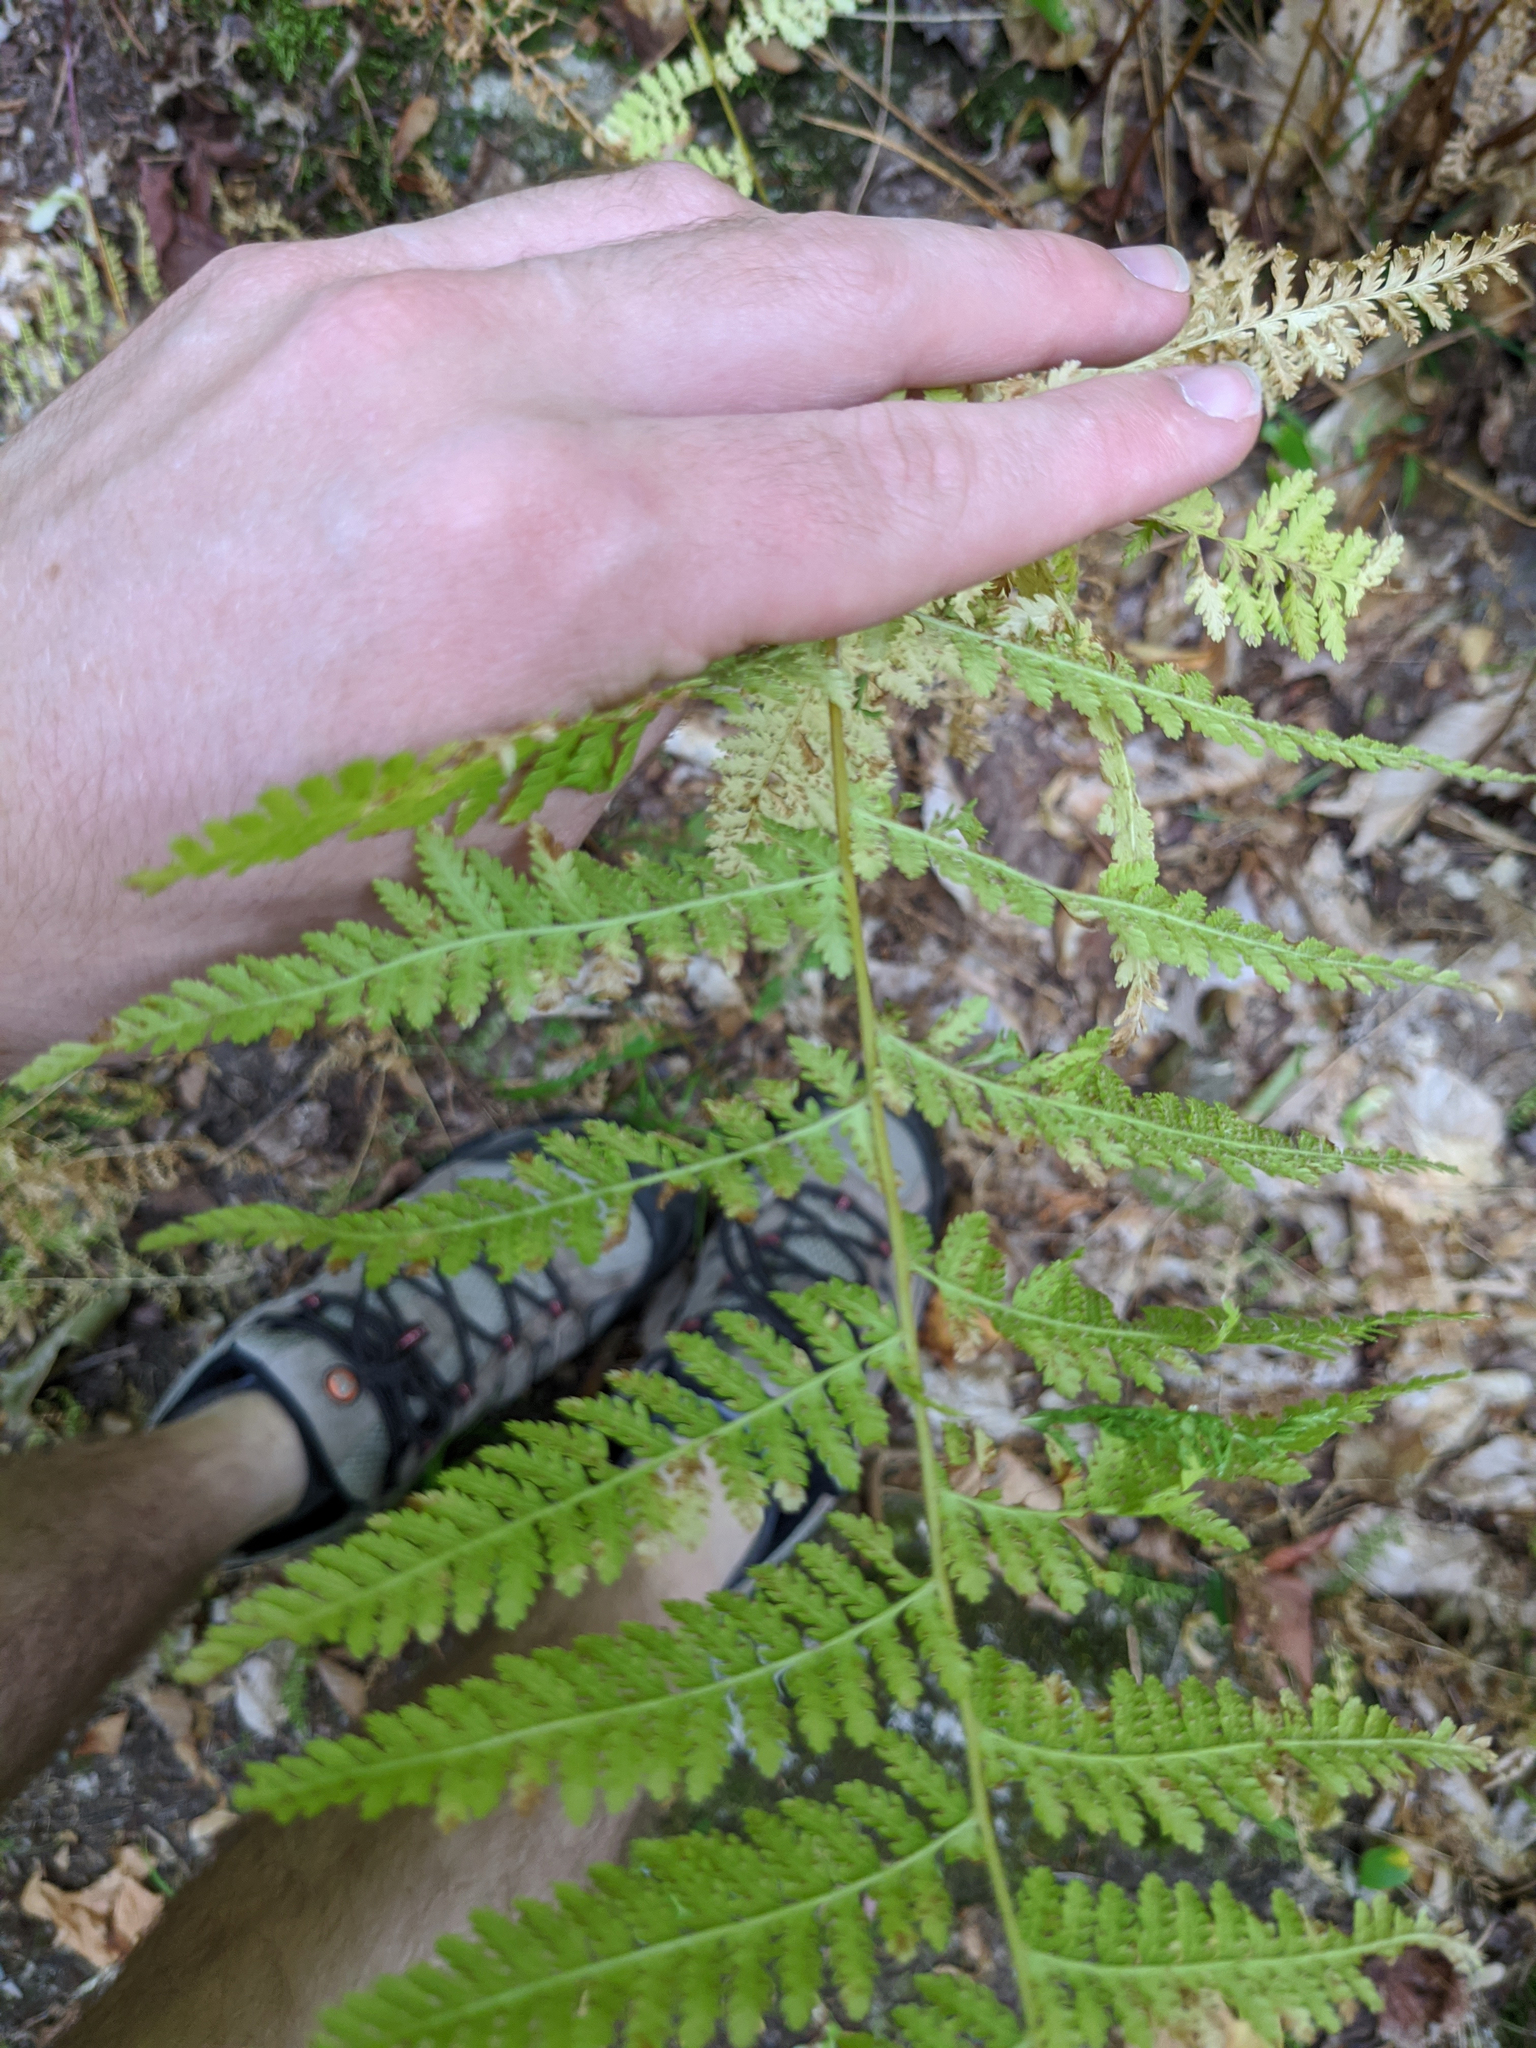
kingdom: Plantae
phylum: Tracheophyta
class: Polypodiopsida
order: Polypodiales
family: Dennstaedtiaceae
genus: Sitobolium
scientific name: Sitobolium punctilobum
